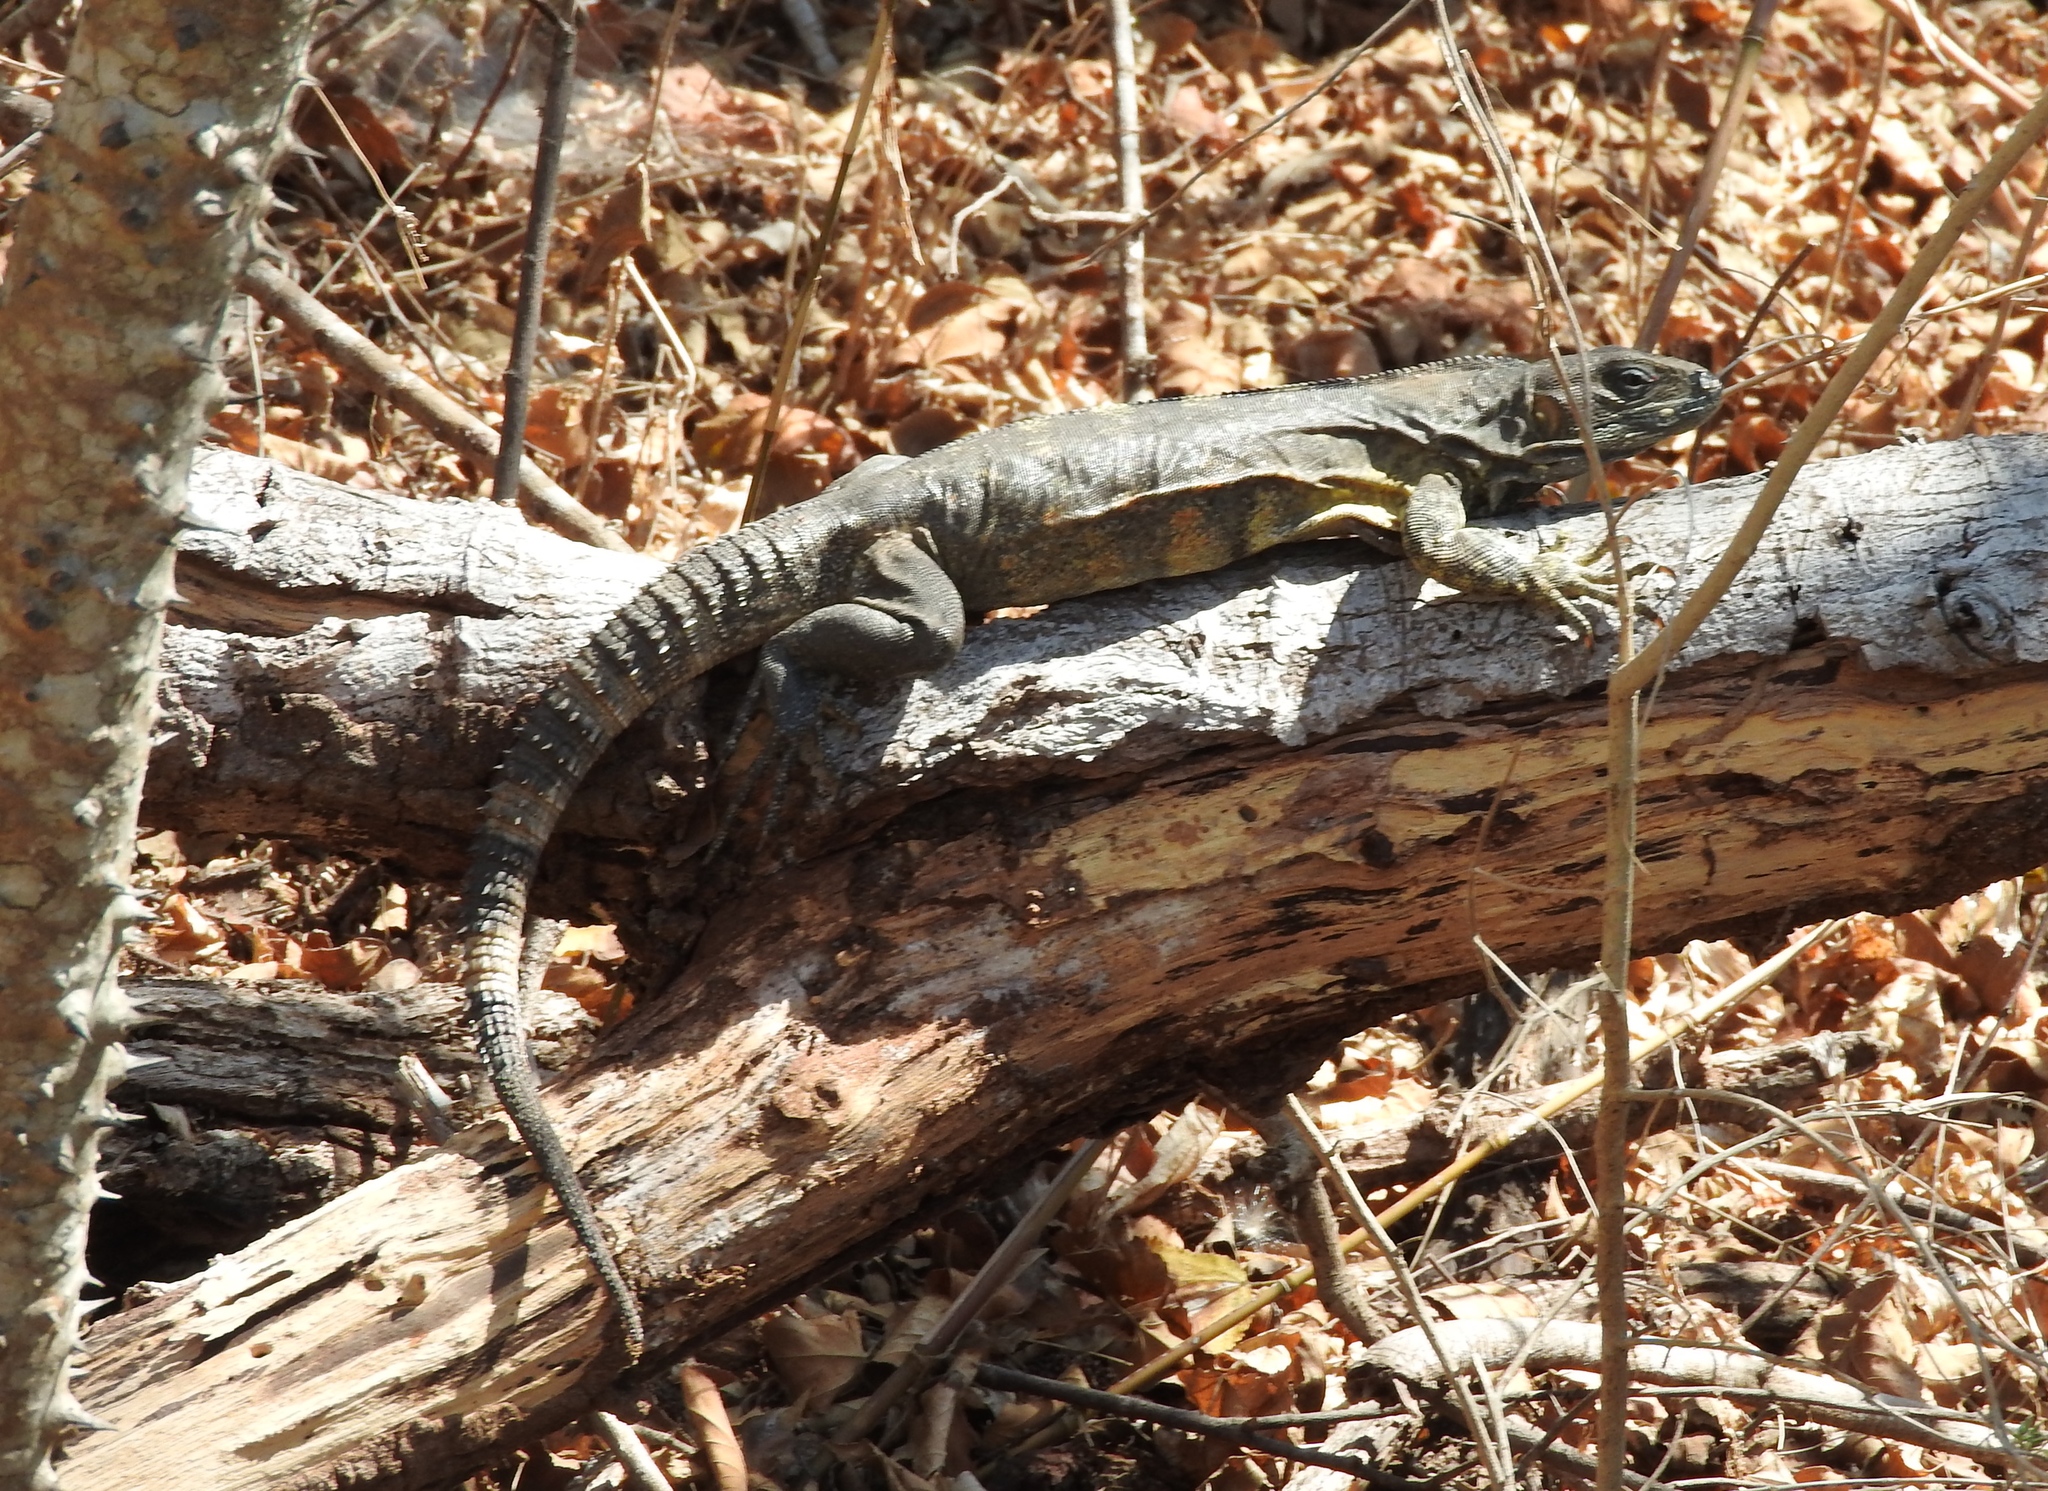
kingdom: Animalia
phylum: Chordata
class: Squamata
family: Iguanidae
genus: Ctenosaura
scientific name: Ctenosaura pectinata
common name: Guerreran spiny-tailed iguana
